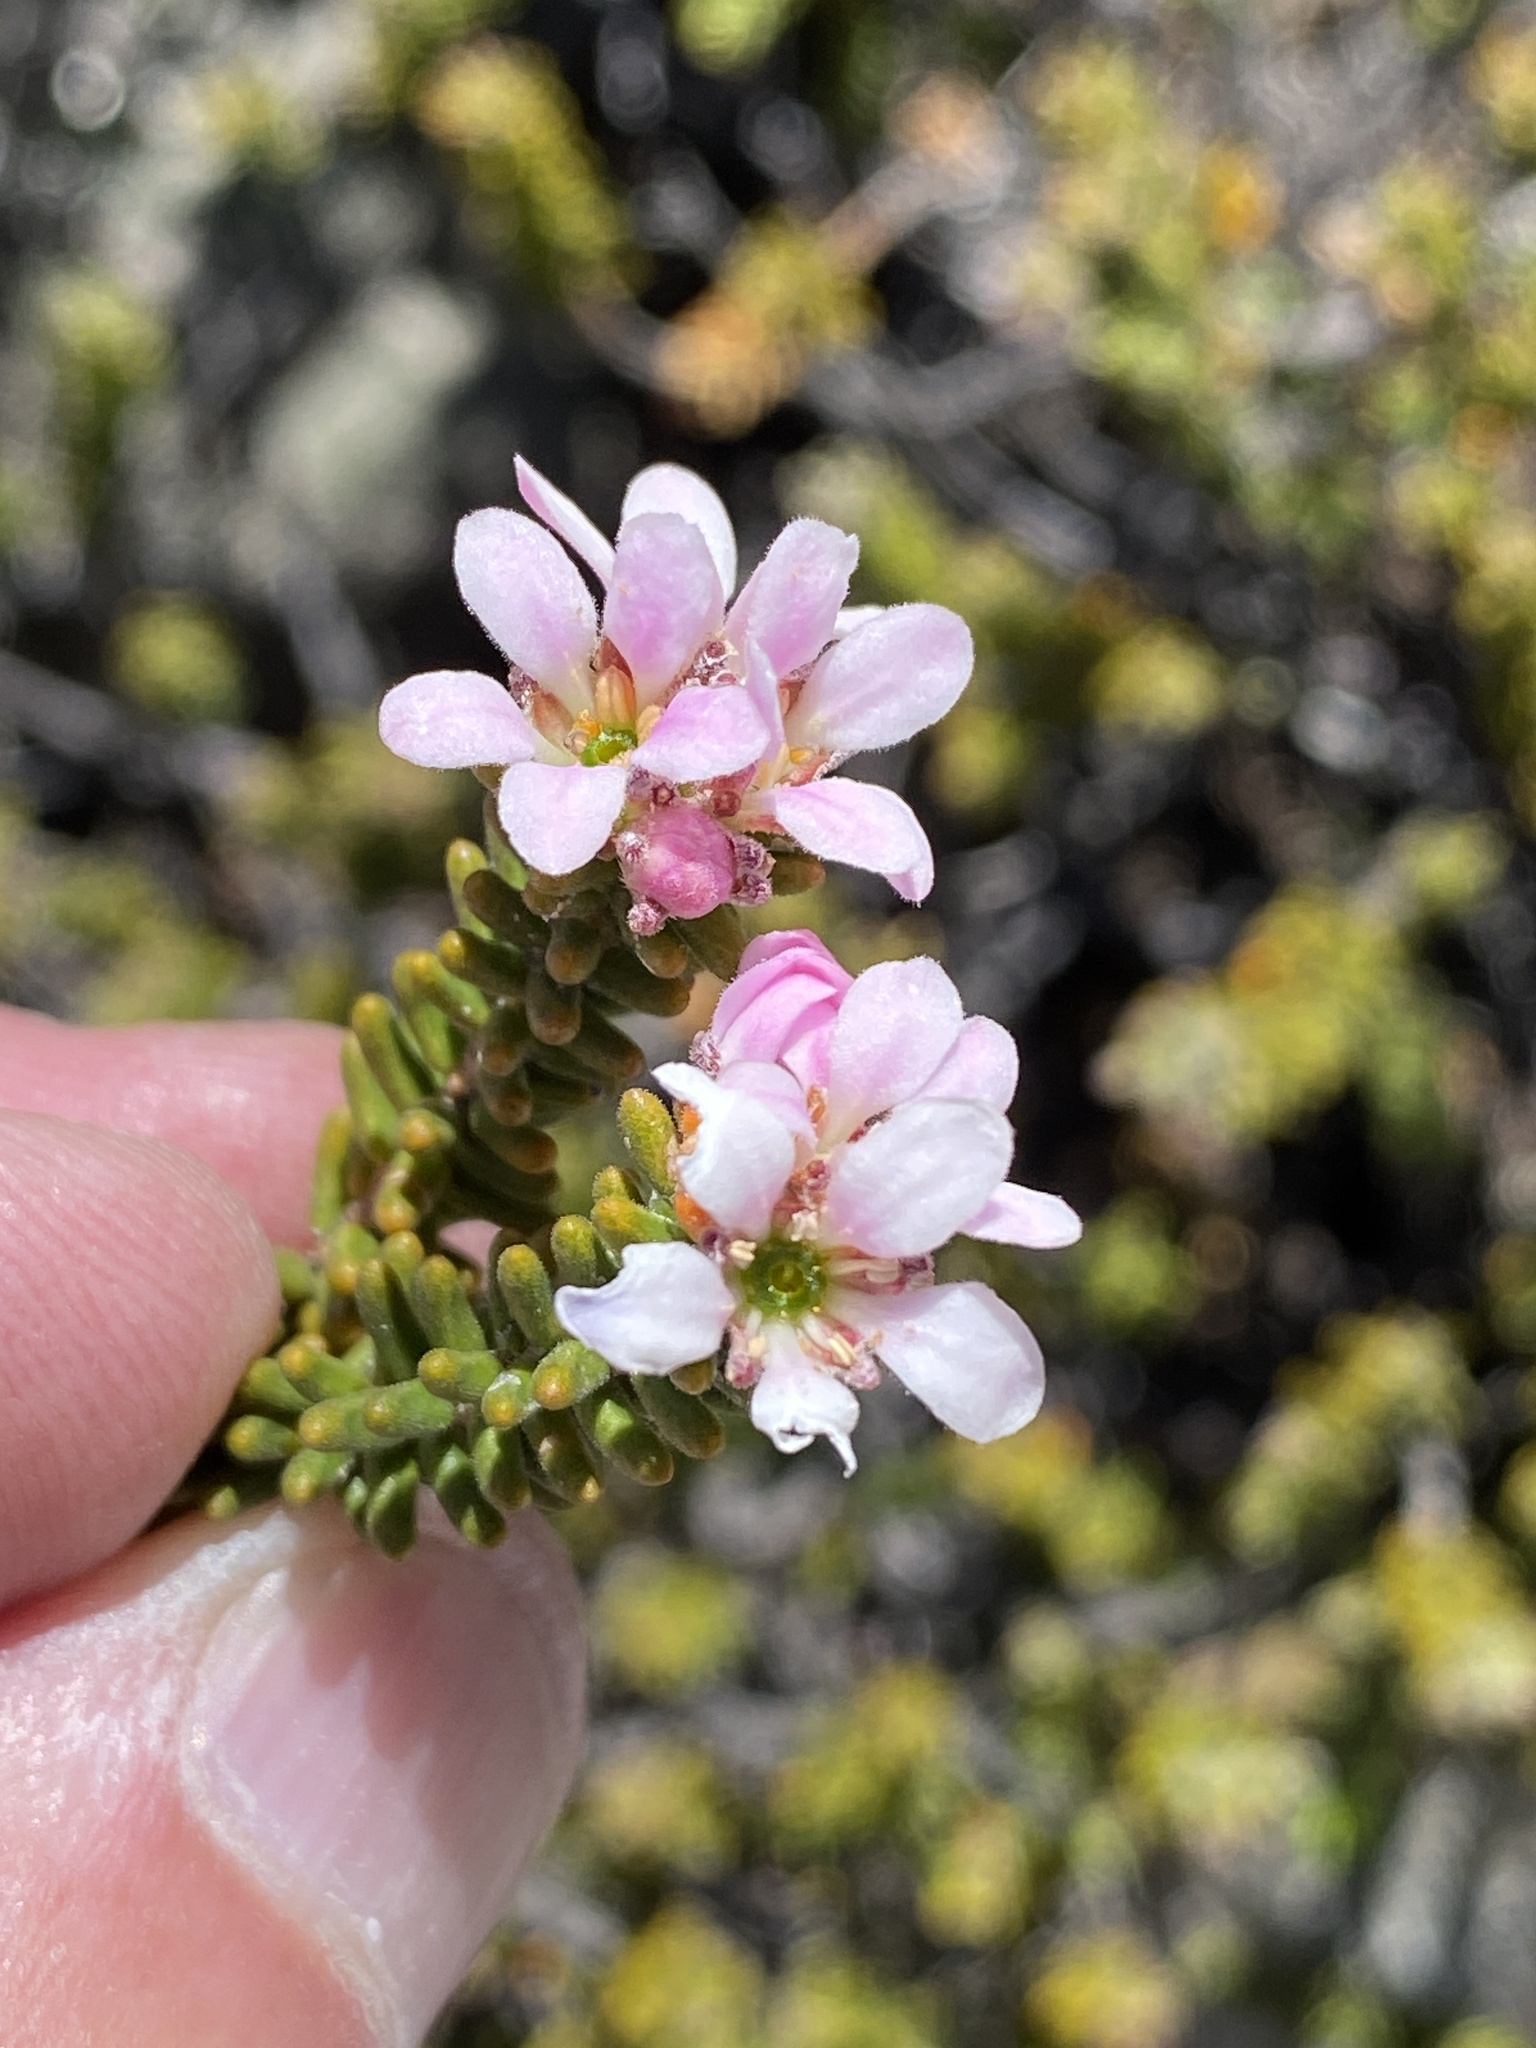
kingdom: Plantae
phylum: Tracheophyta
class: Magnoliopsida
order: Sapindales
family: Rutaceae
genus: Acmadenia
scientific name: Acmadenia teretifolia
